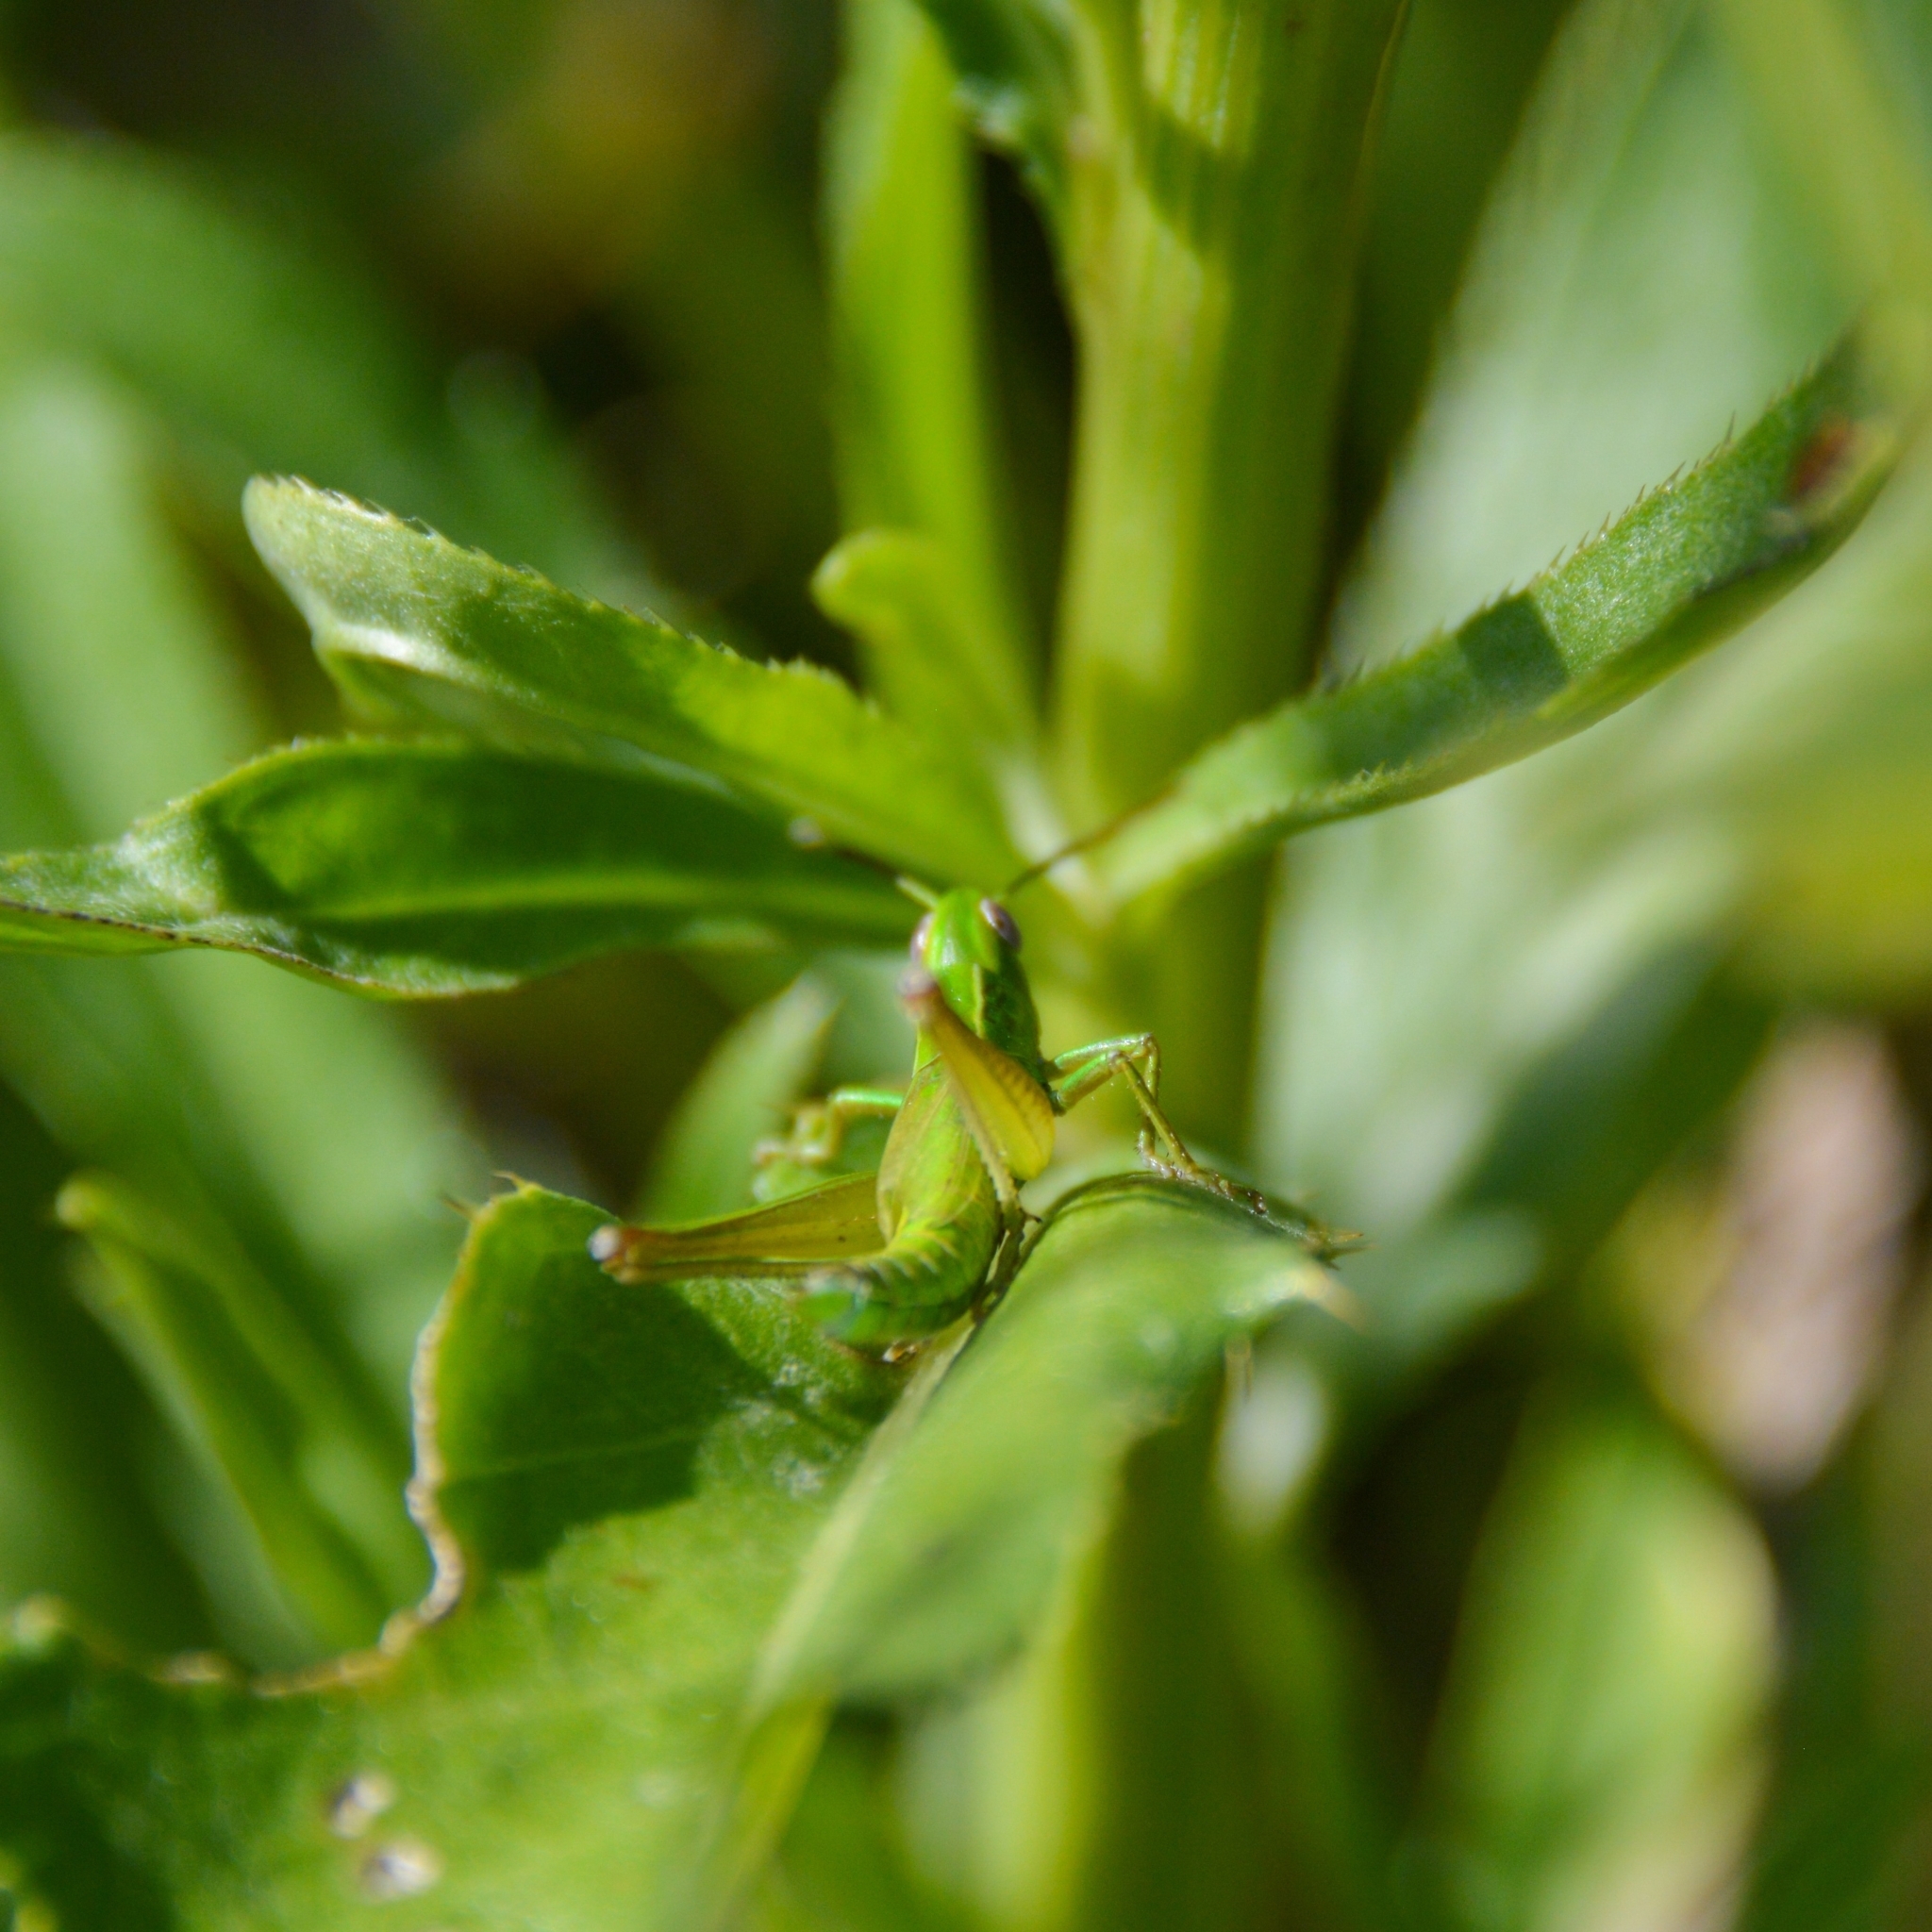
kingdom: Animalia
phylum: Arthropoda
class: Insecta
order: Orthoptera
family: Acrididae
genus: Euthystira
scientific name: Euthystira brachyptera
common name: Small gold grasshopper
